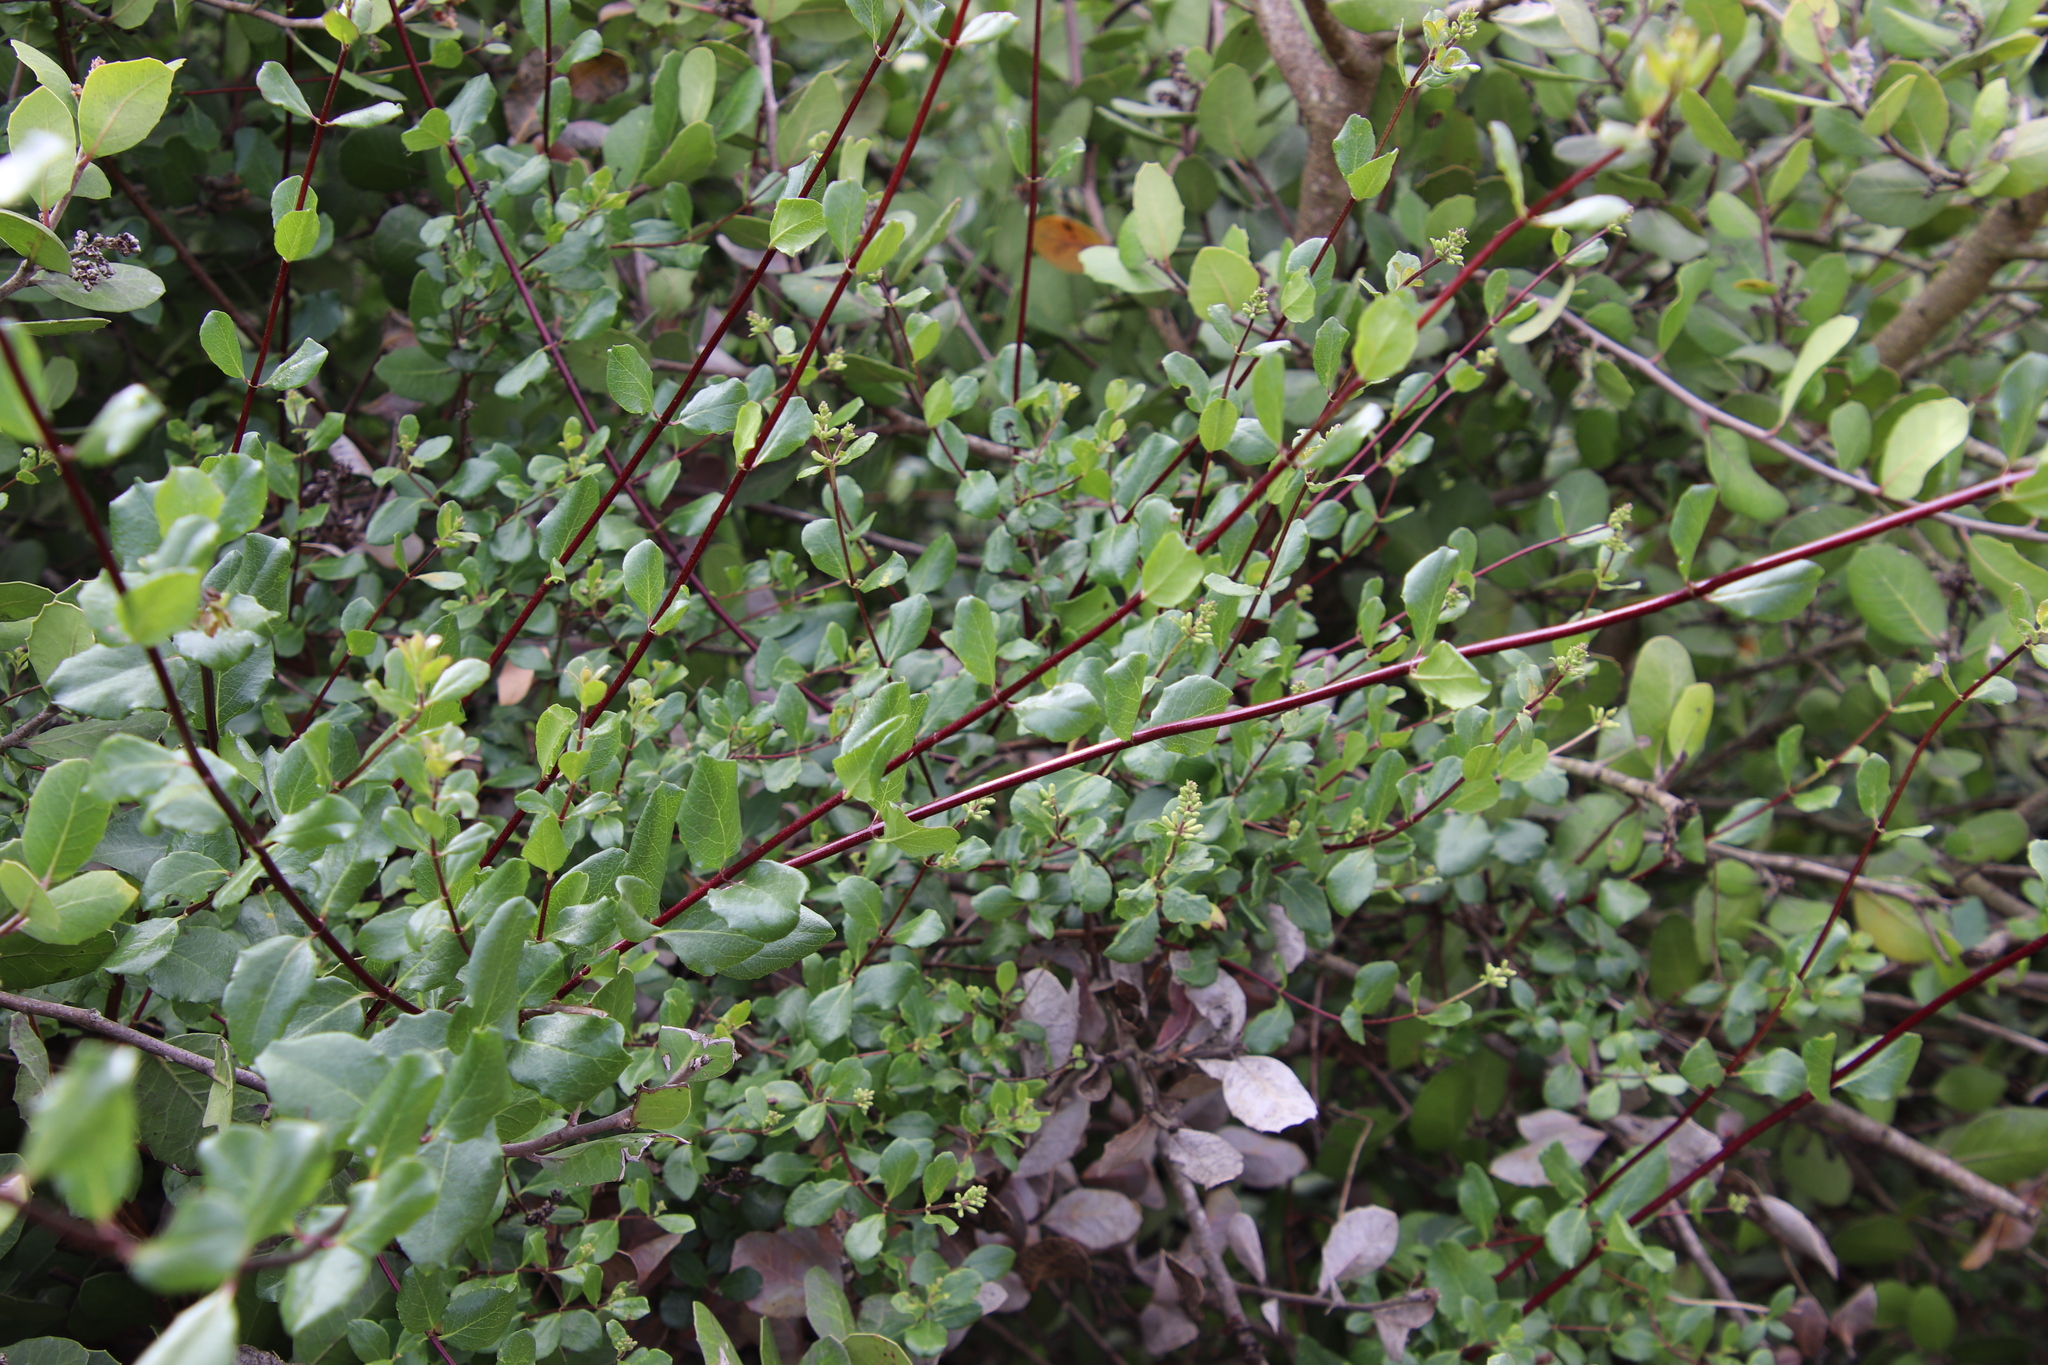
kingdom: Plantae
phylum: Tracheophyta
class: Magnoliopsida
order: Dipsacales
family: Caprifoliaceae
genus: Lonicera
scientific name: Lonicera subspicata
